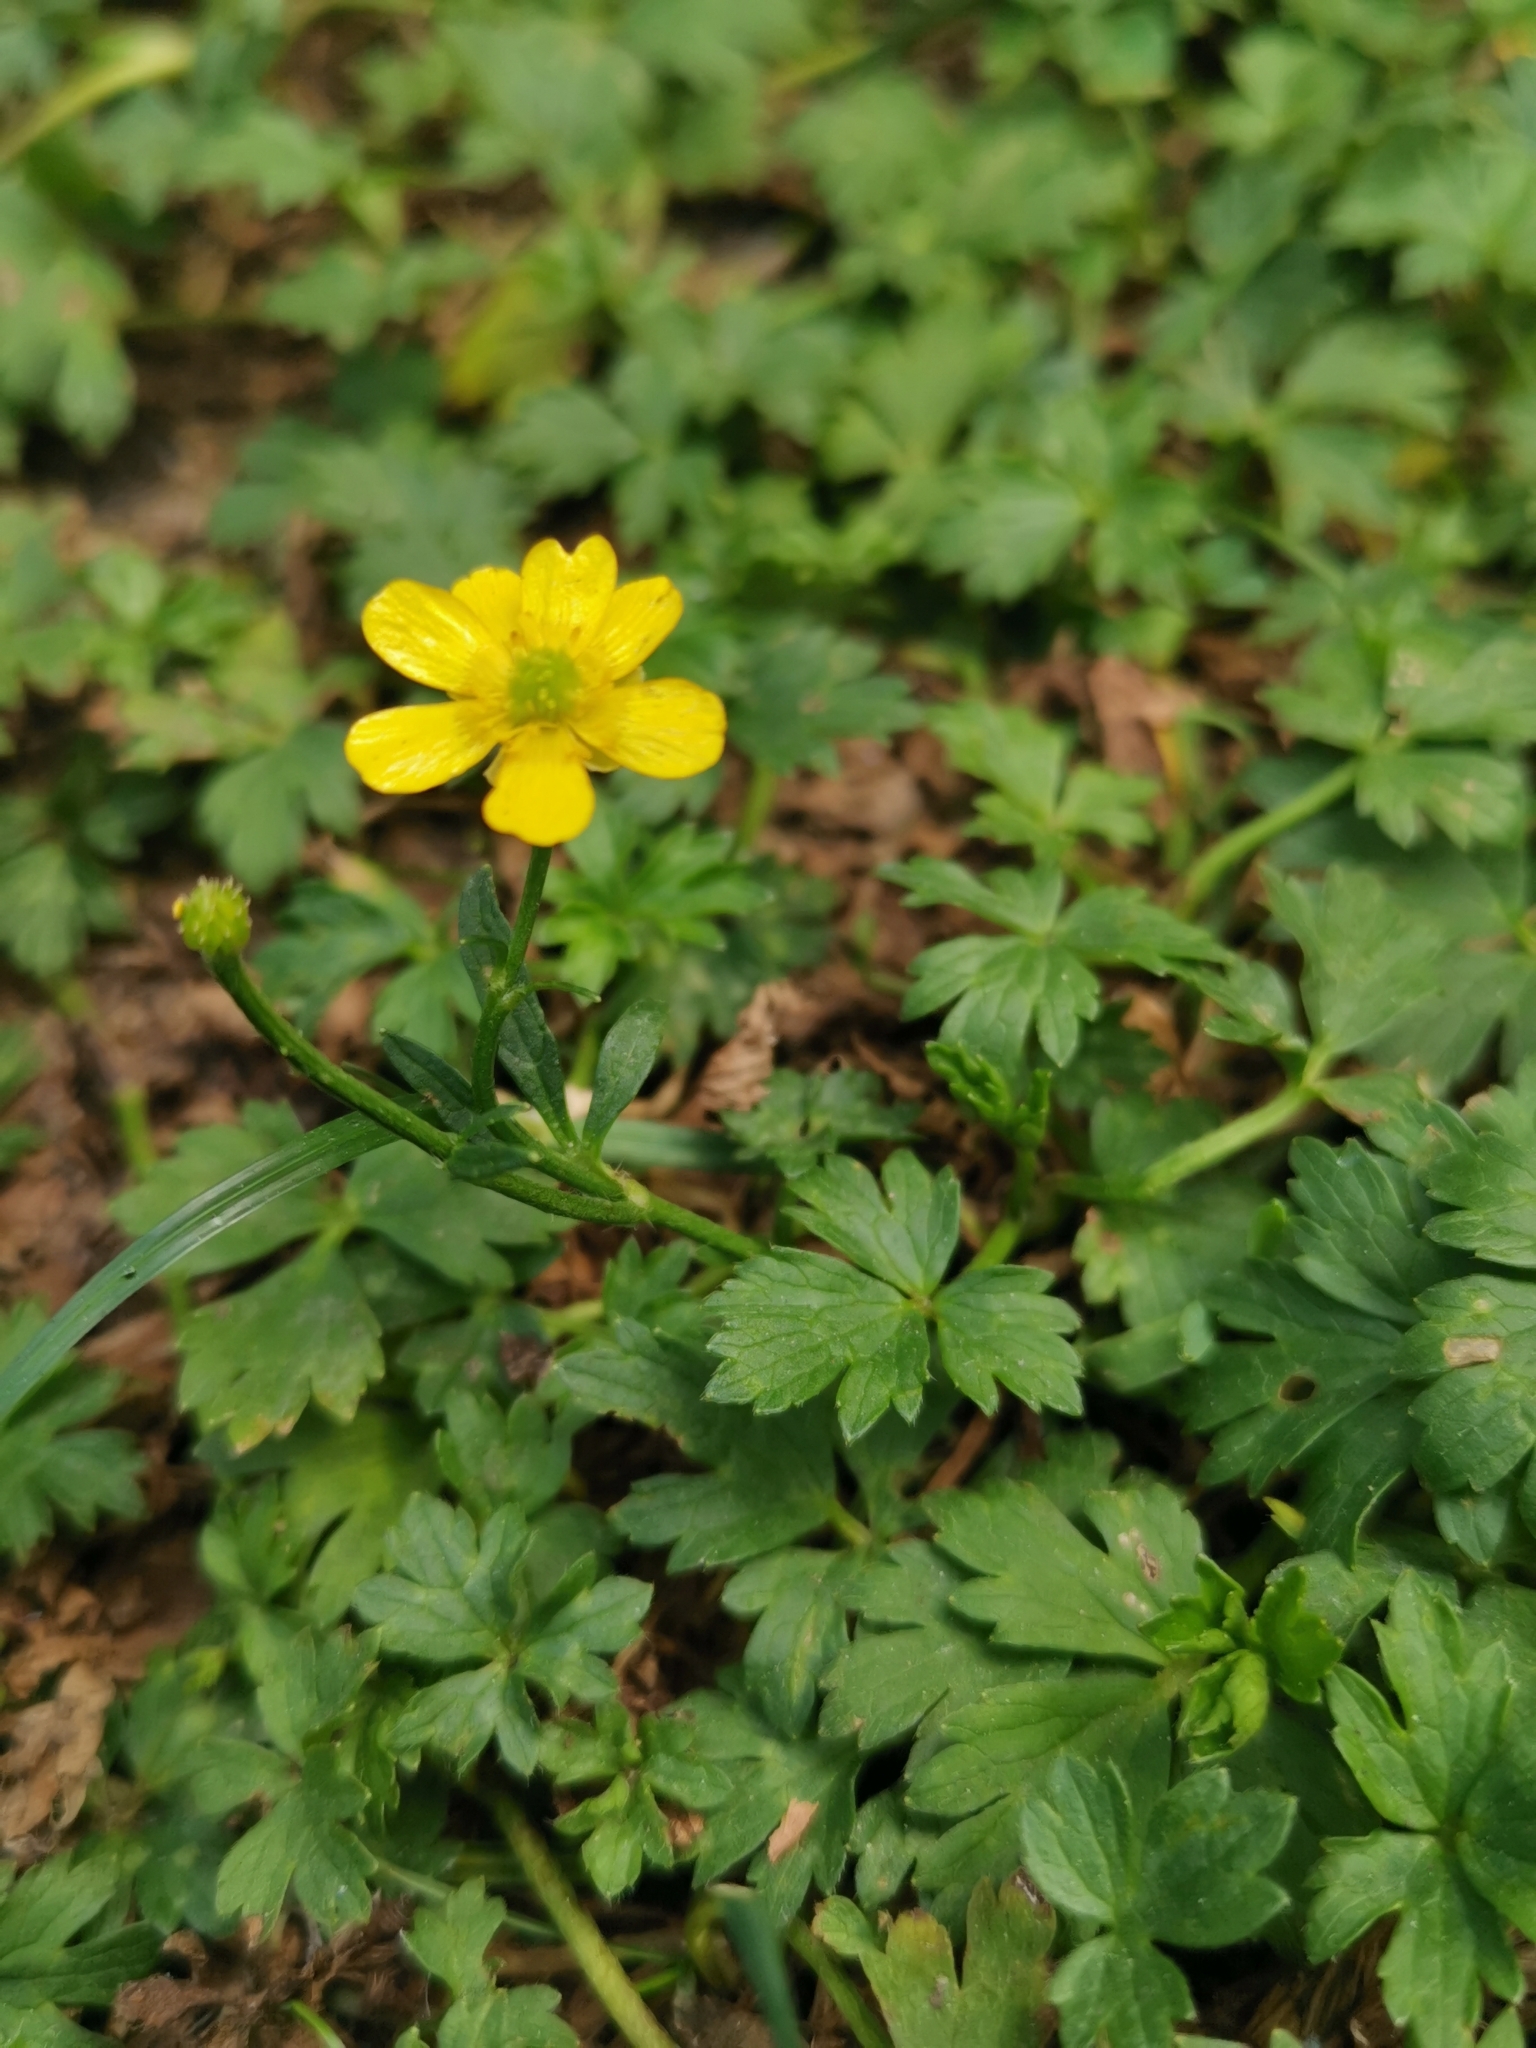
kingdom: Plantae
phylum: Tracheophyta
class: Magnoliopsida
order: Ranunculales
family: Ranunculaceae
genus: Ranunculus
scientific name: Ranunculus repens
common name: Creeping buttercup
